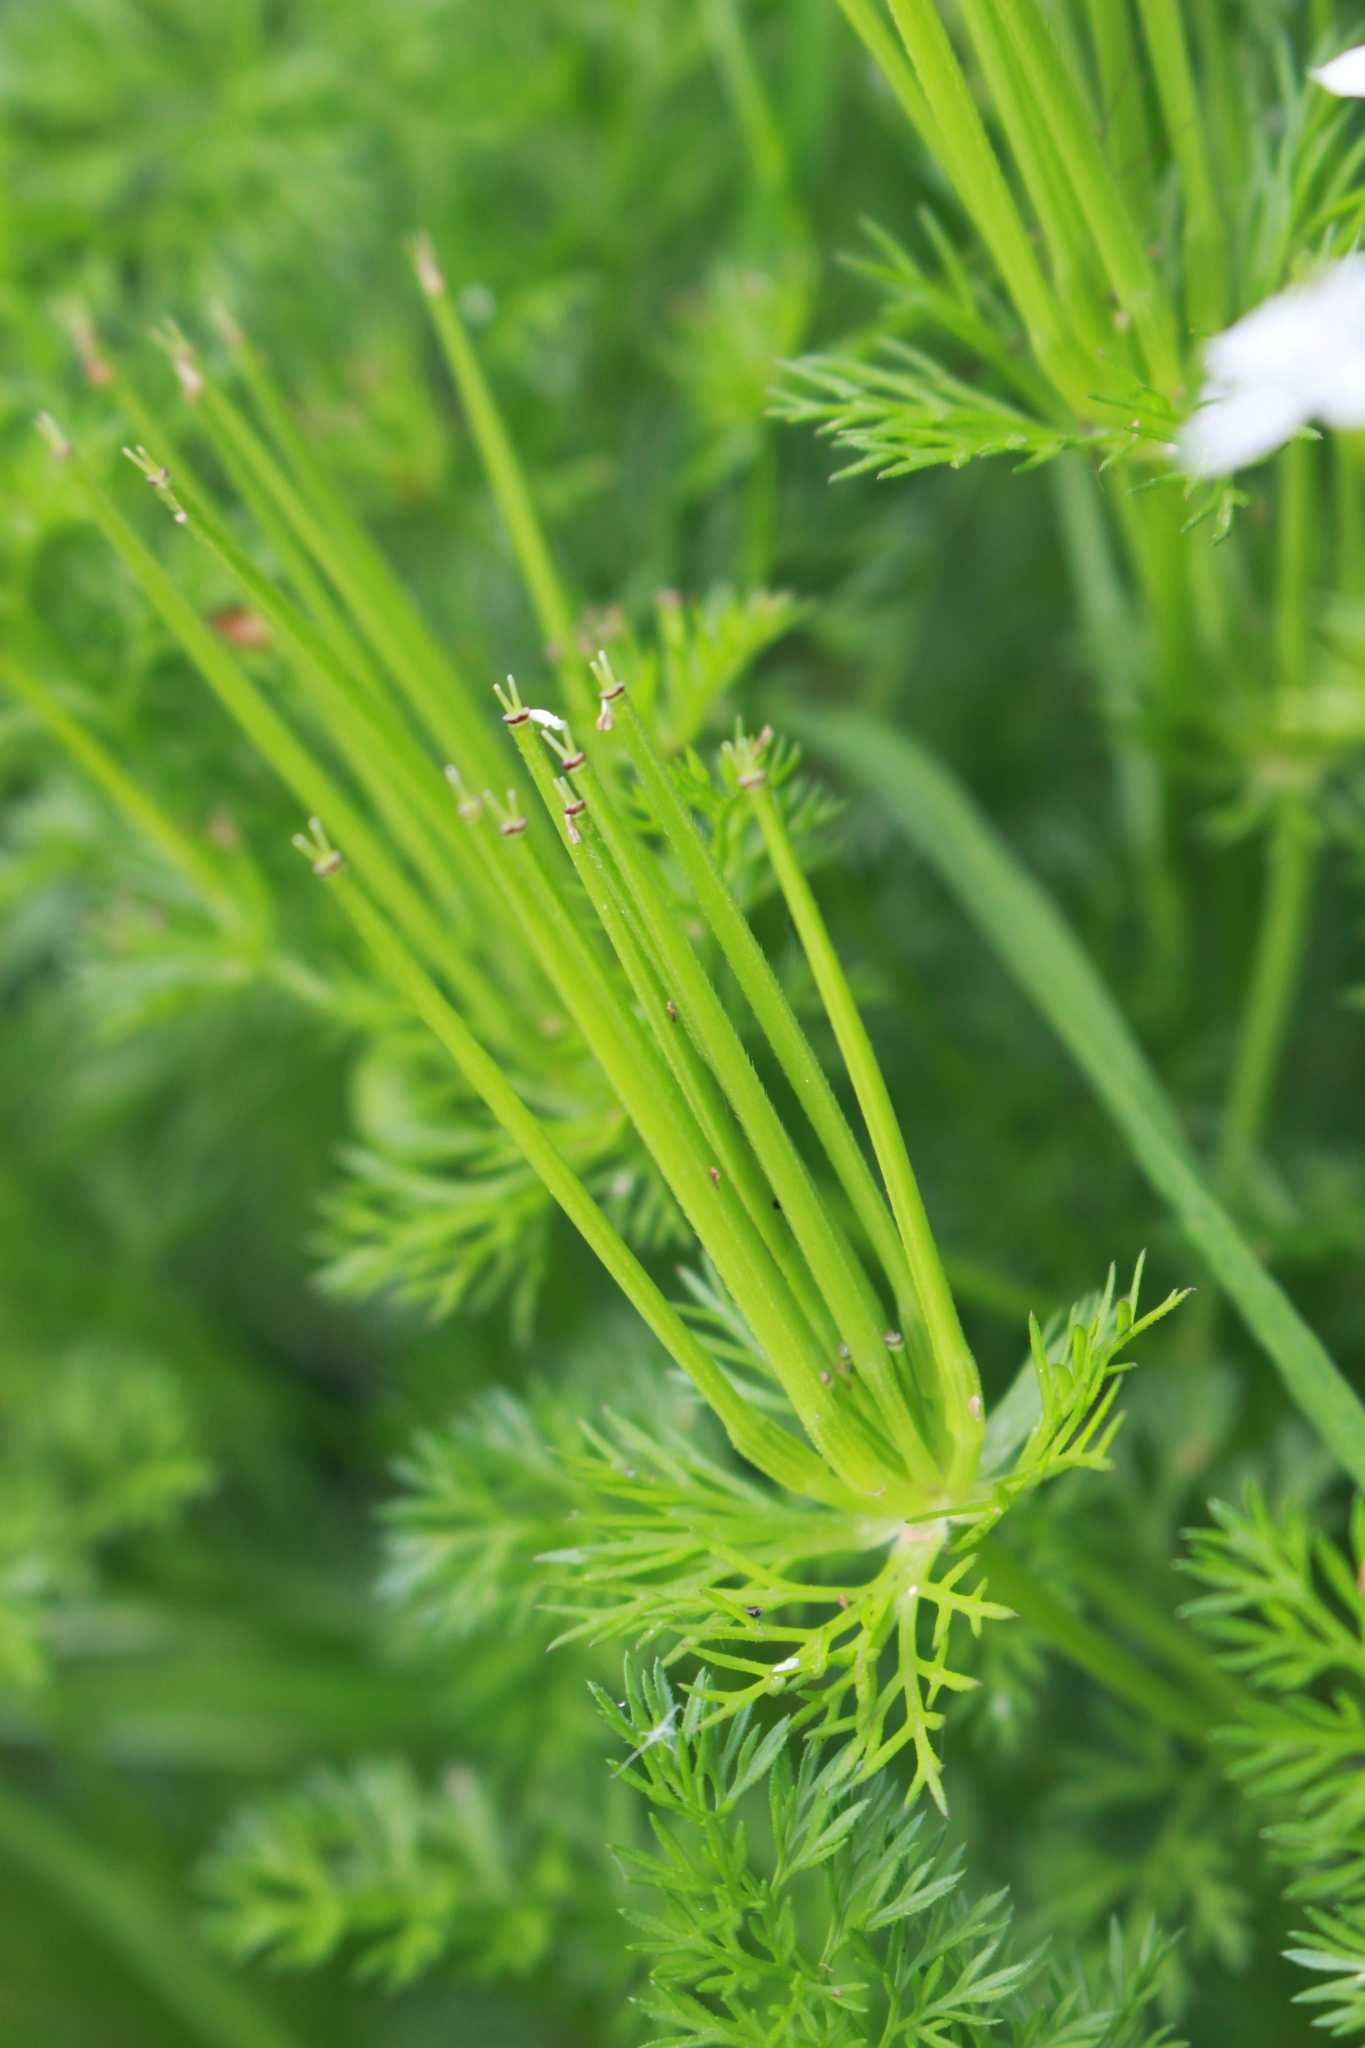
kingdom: Plantae
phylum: Tracheophyta
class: Magnoliopsida
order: Apiales
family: Apiaceae
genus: Scandix
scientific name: Scandix pecten-veneris
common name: Shepherd's-needle
